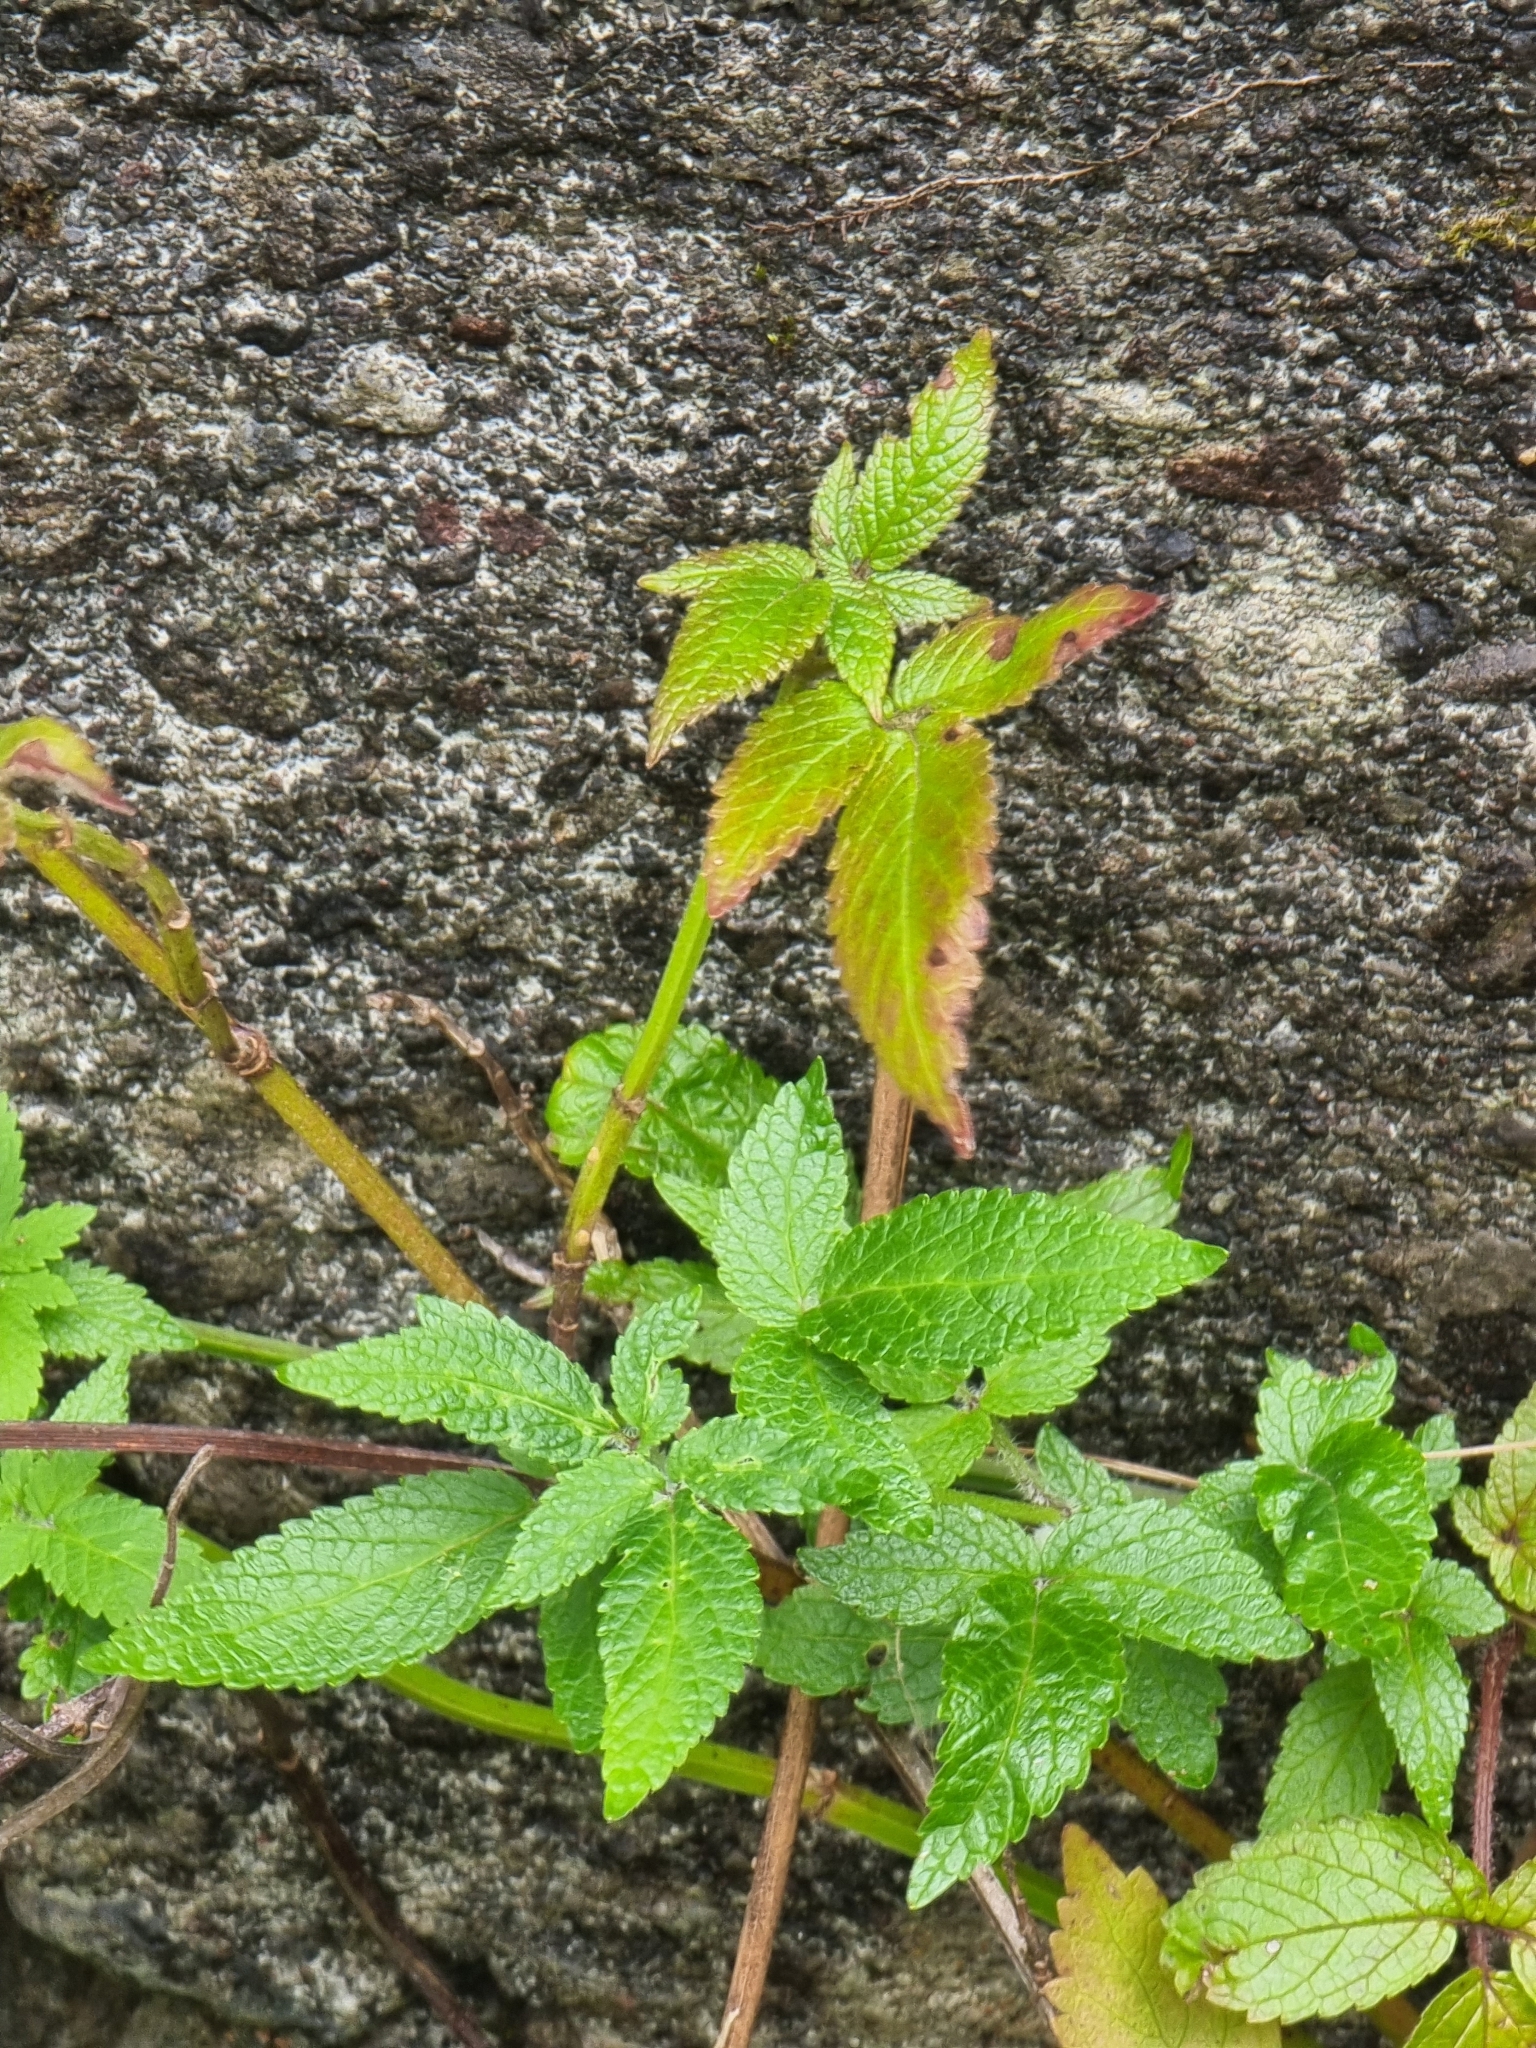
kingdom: Plantae
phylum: Tracheophyta
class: Magnoliopsida
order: Lamiales
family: Lamiaceae
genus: Cedronella
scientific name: Cedronella canariensis
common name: Canary islands balm
